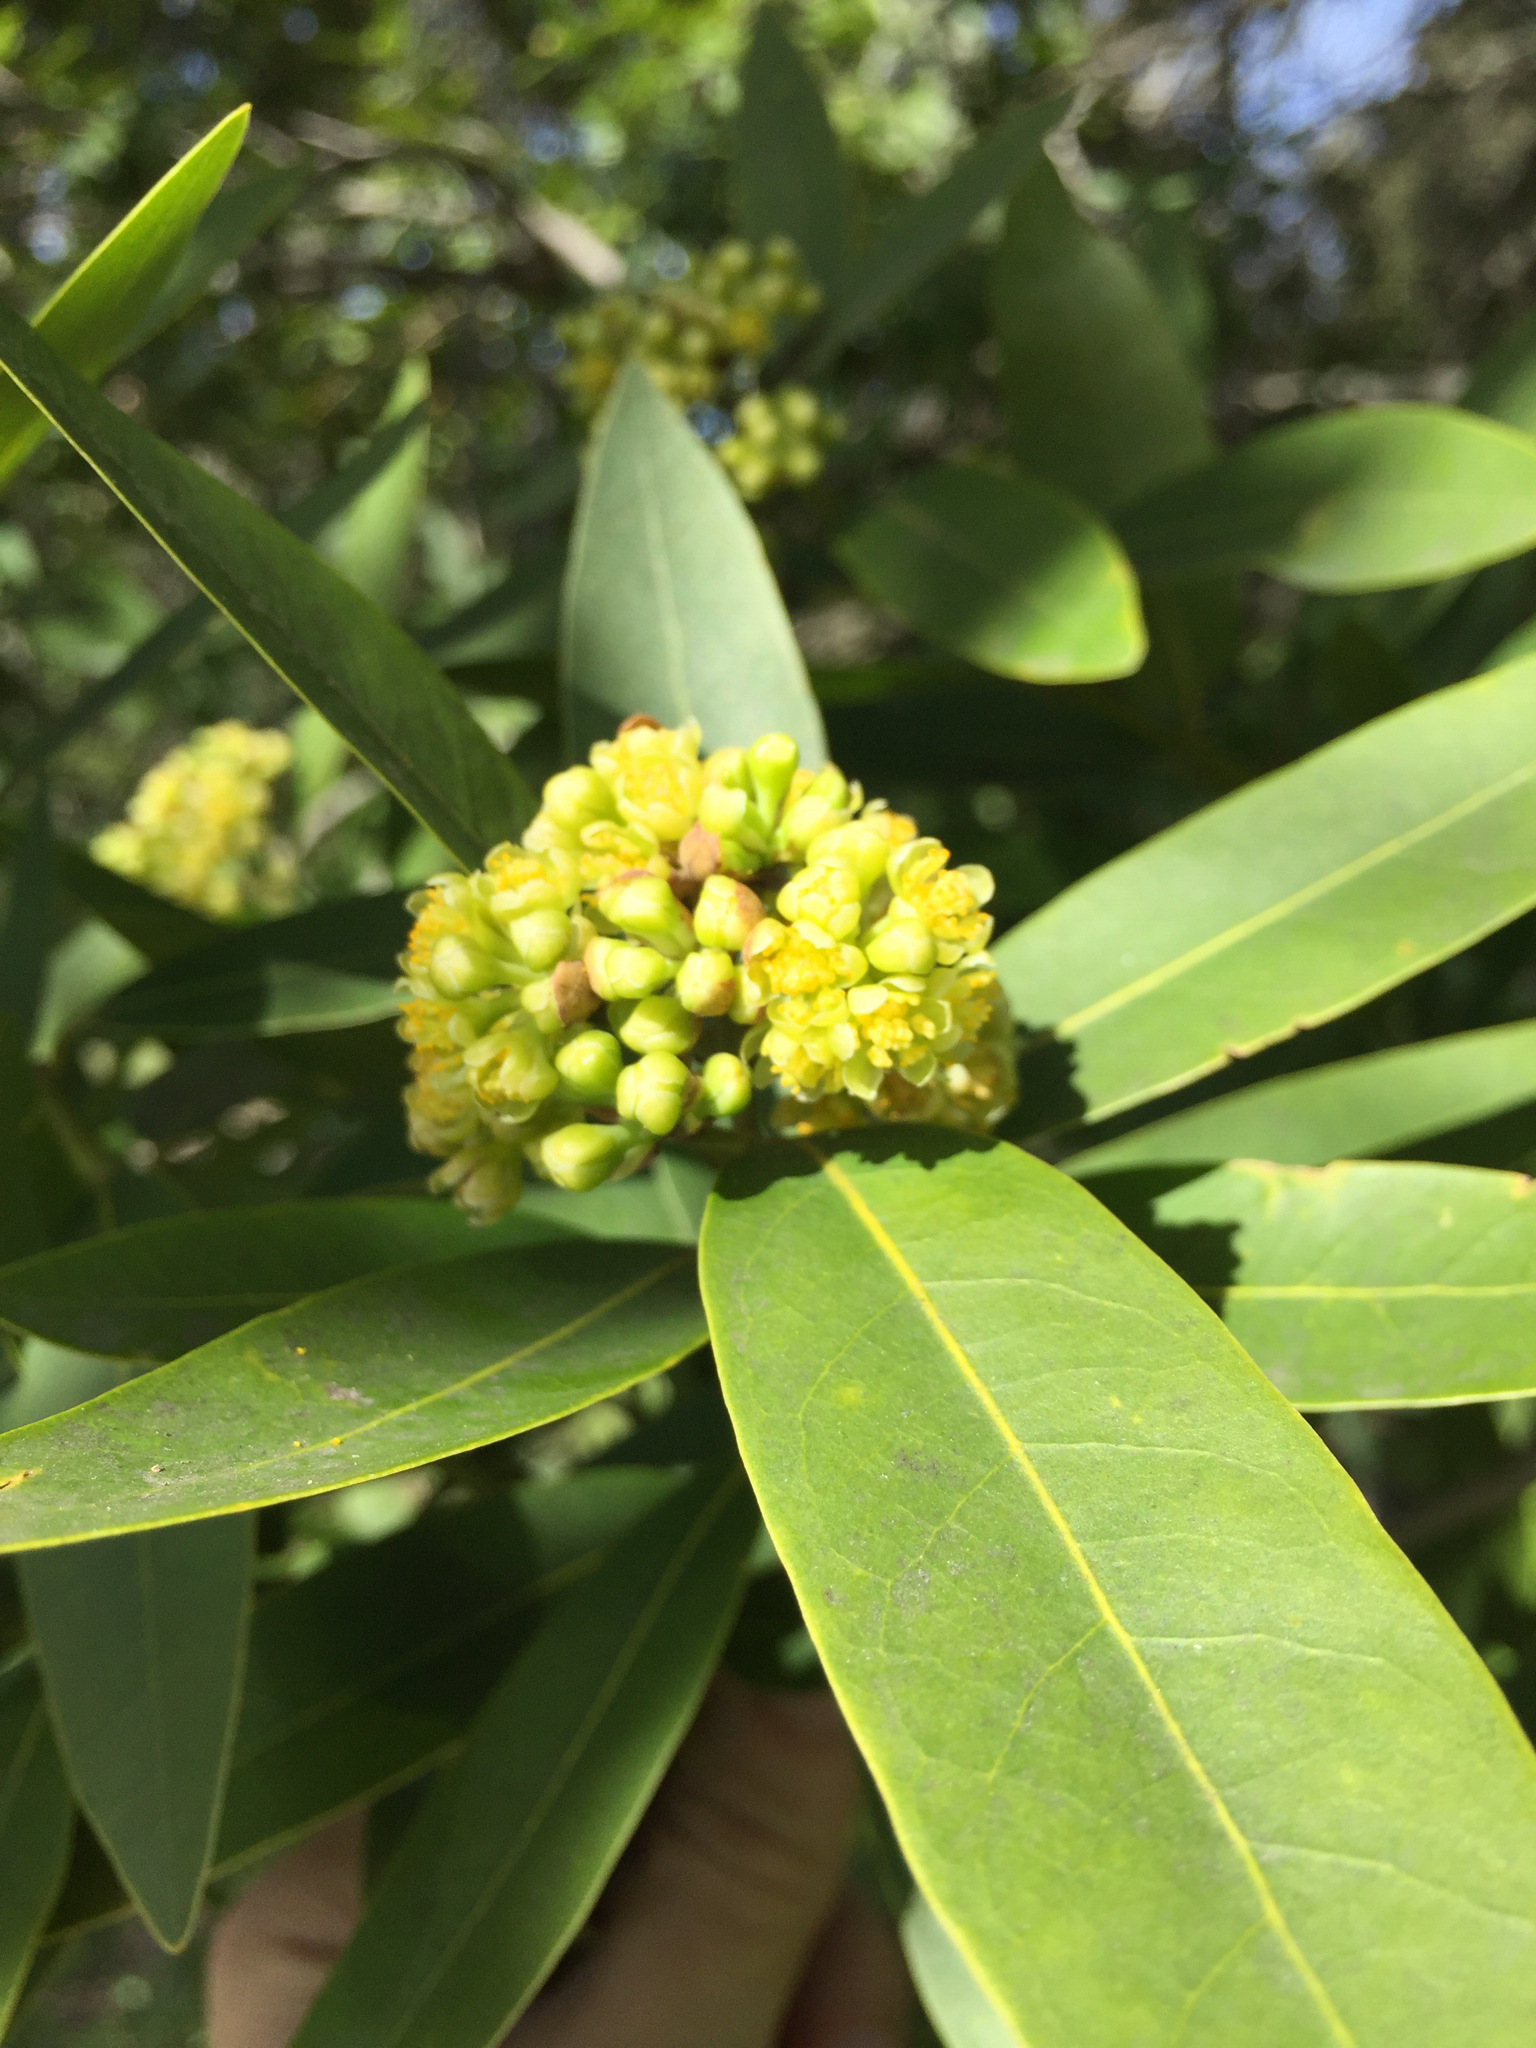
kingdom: Plantae
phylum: Tracheophyta
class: Magnoliopsida
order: Laurales
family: Lauraceae
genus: Umbellularia
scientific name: Umbellularia californica
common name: California bay
